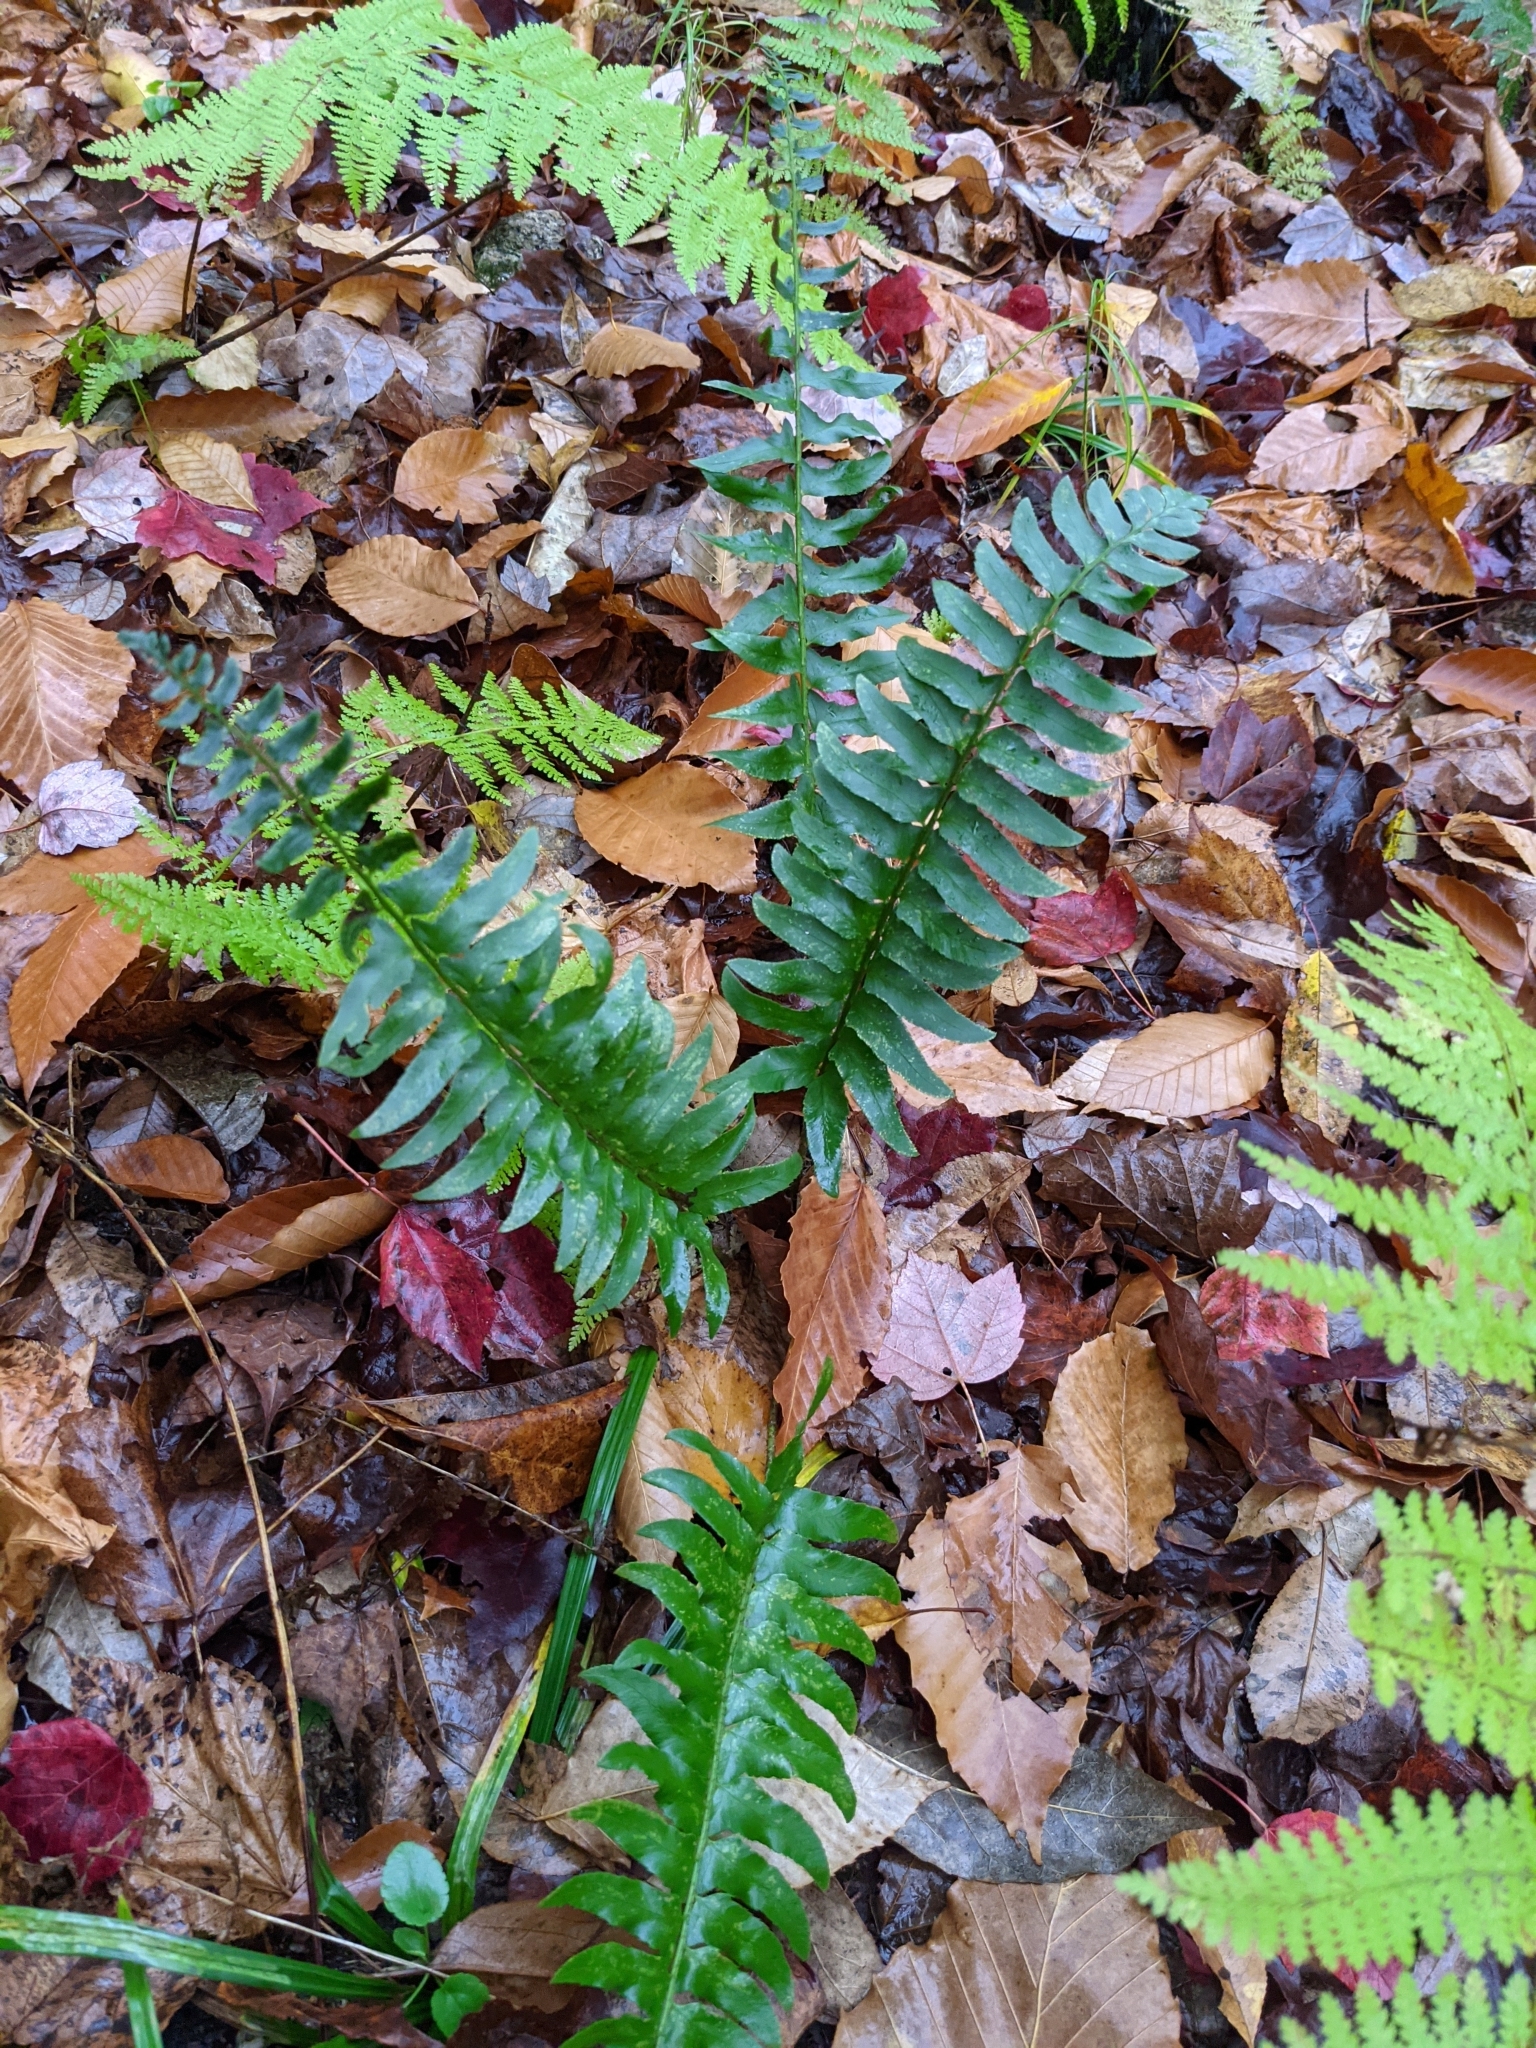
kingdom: Plantae
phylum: Tracheophyta
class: Polypodiopsida
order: Polypodiales
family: Dryopteridaceae
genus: Polystichum
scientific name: Polystichum acrostichoides
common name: Christmas fern
